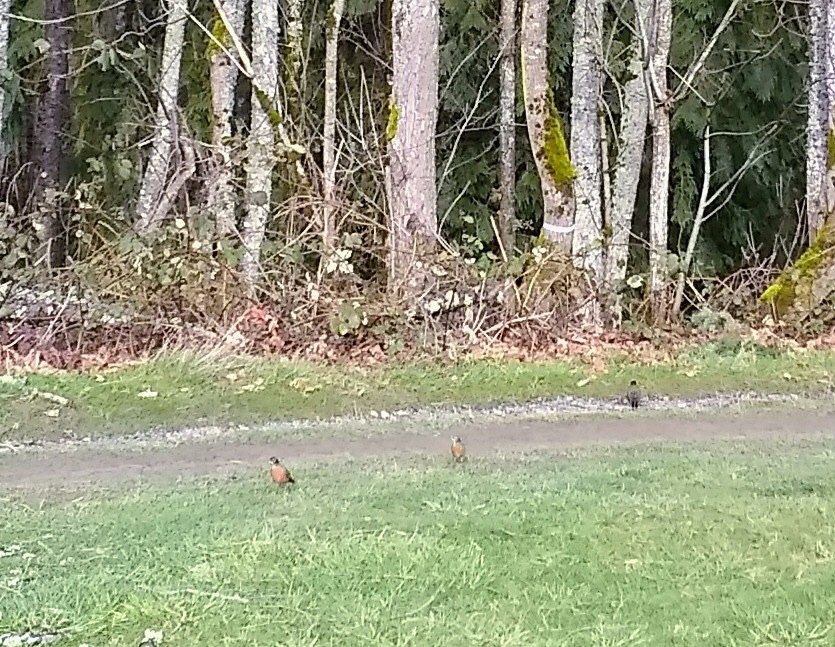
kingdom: Animalia
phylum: Chordata
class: Aves
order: Passeriformes
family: Turdidae
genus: Turdus
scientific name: Turdus migratorius
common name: American robin
